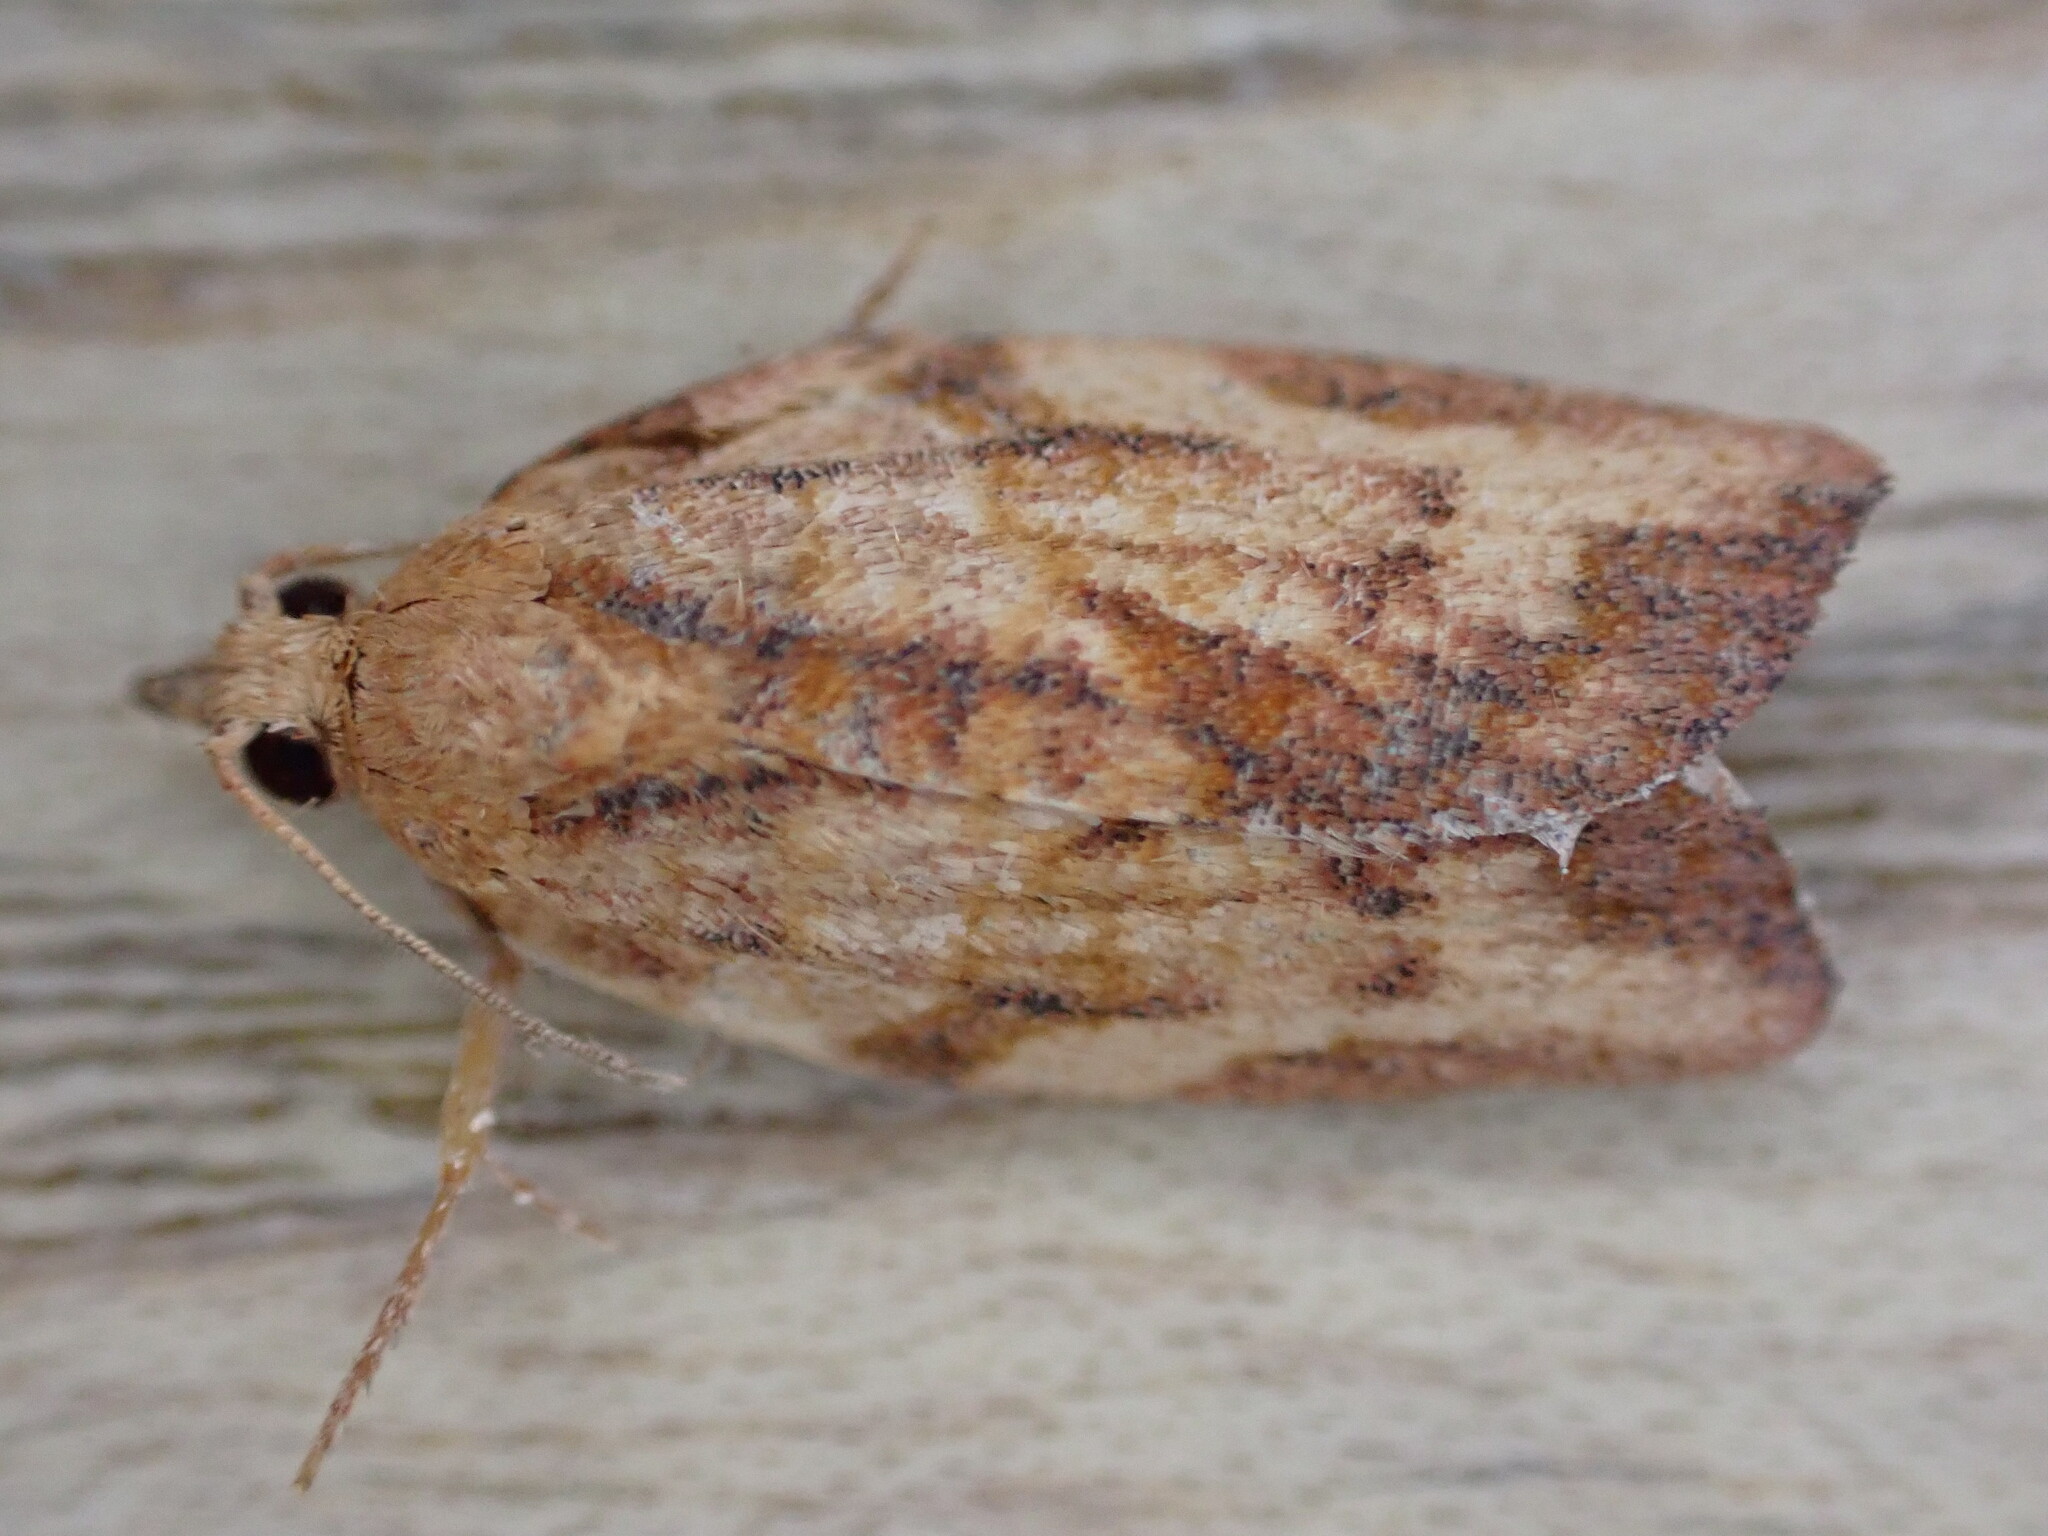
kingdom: Animalia
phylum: Arthropoda
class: Insecta
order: Lepidoptera
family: Tortricidae
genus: Epiphyas
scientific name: Epiphyas postvittana
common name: Light brown apple moth
